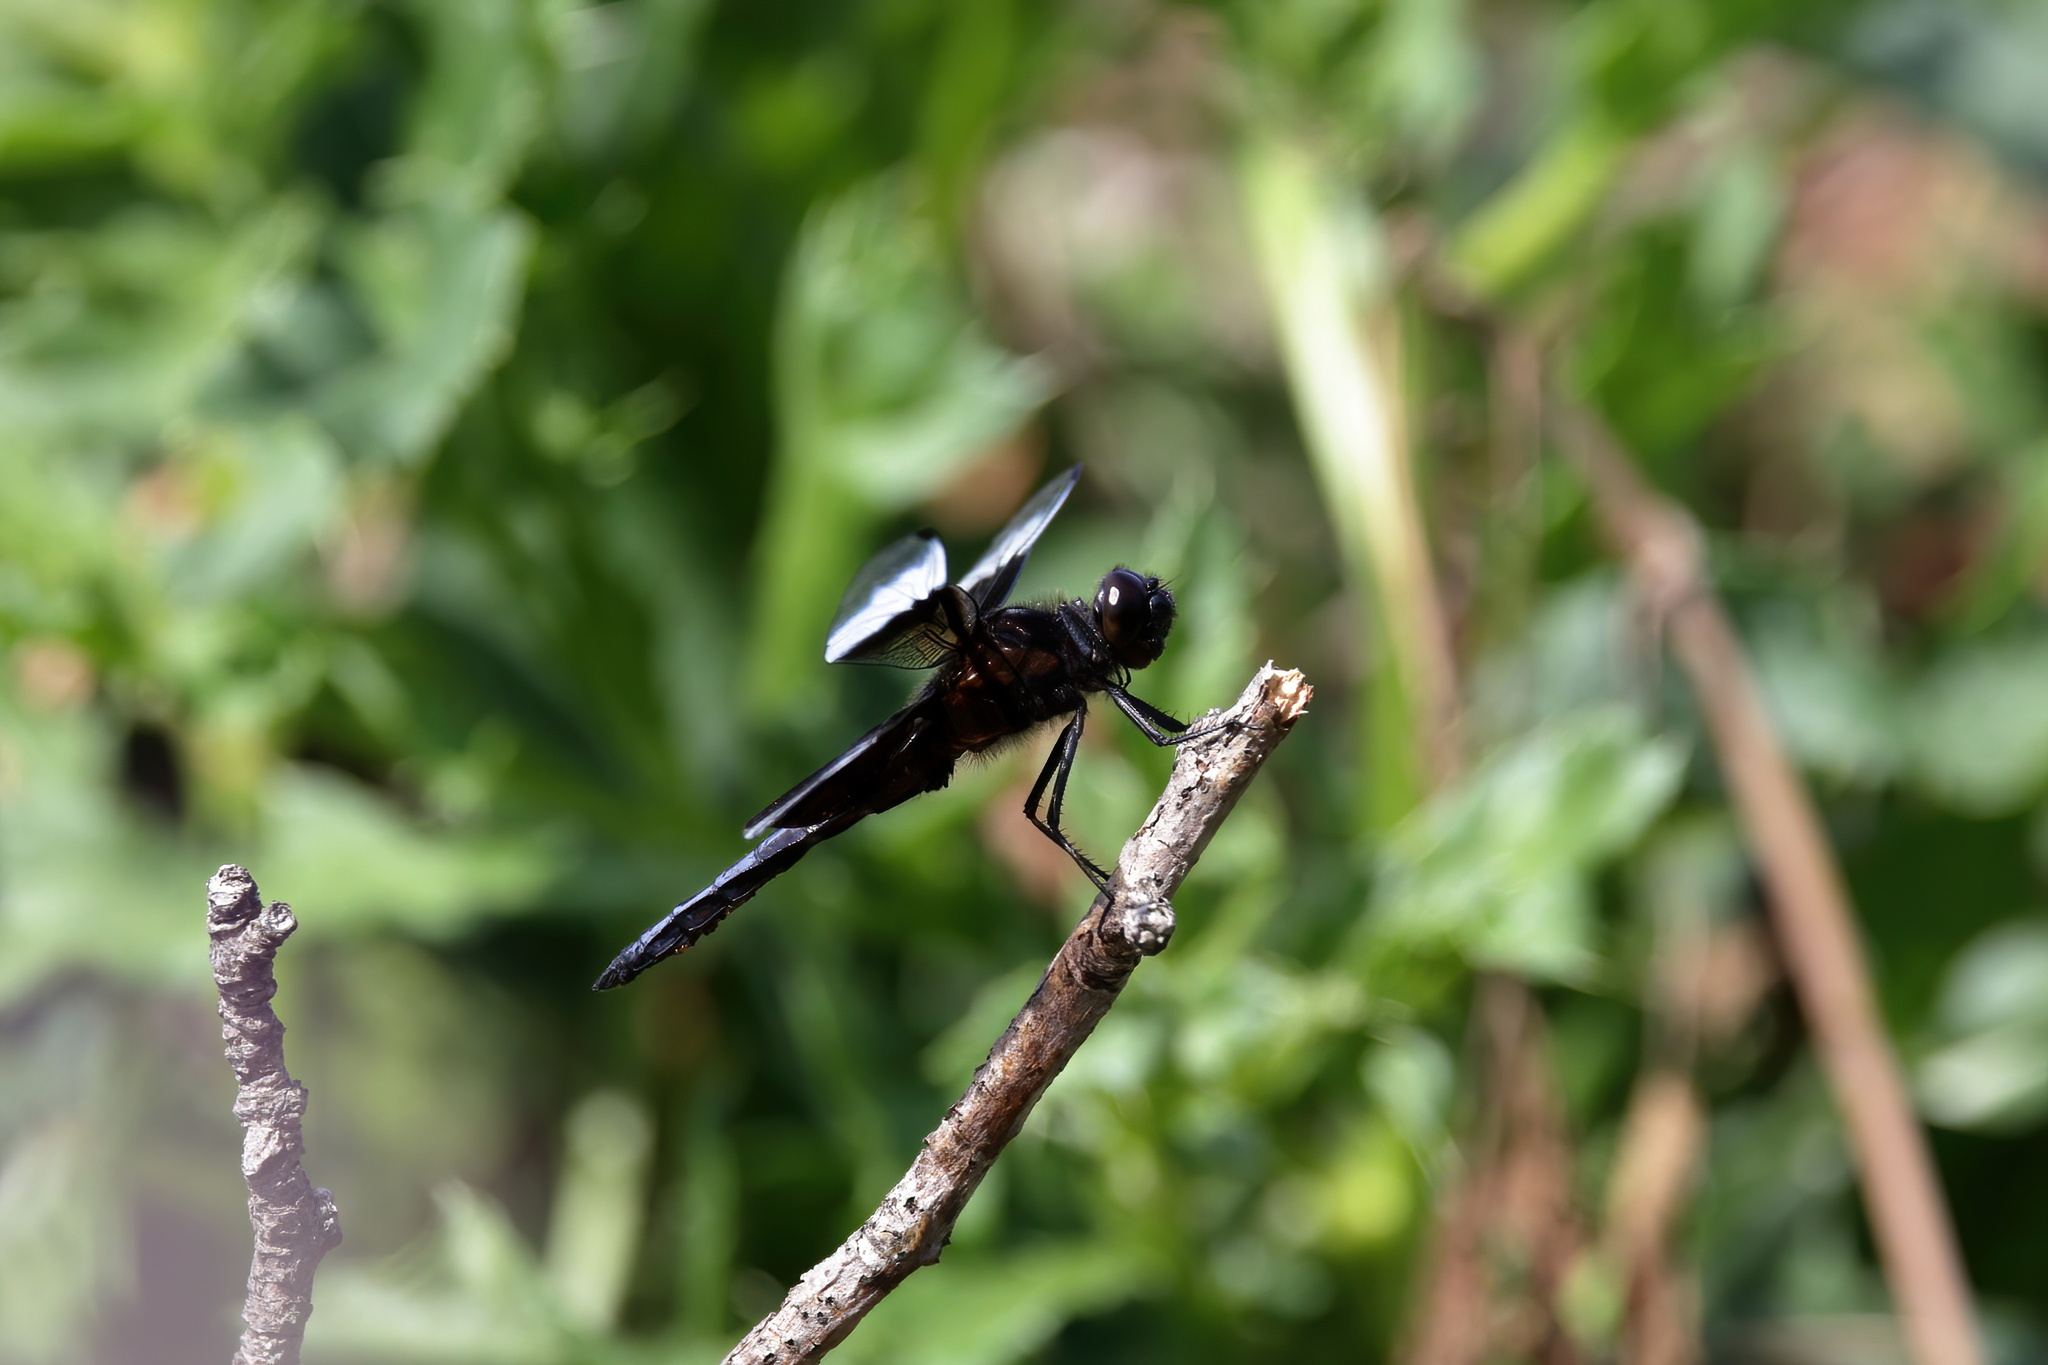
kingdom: Animalia
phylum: Arthropoda
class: Insecta
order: Odonata
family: Libellulidae
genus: Libellula
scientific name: Libellula luctuosa
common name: Widow skimmer
